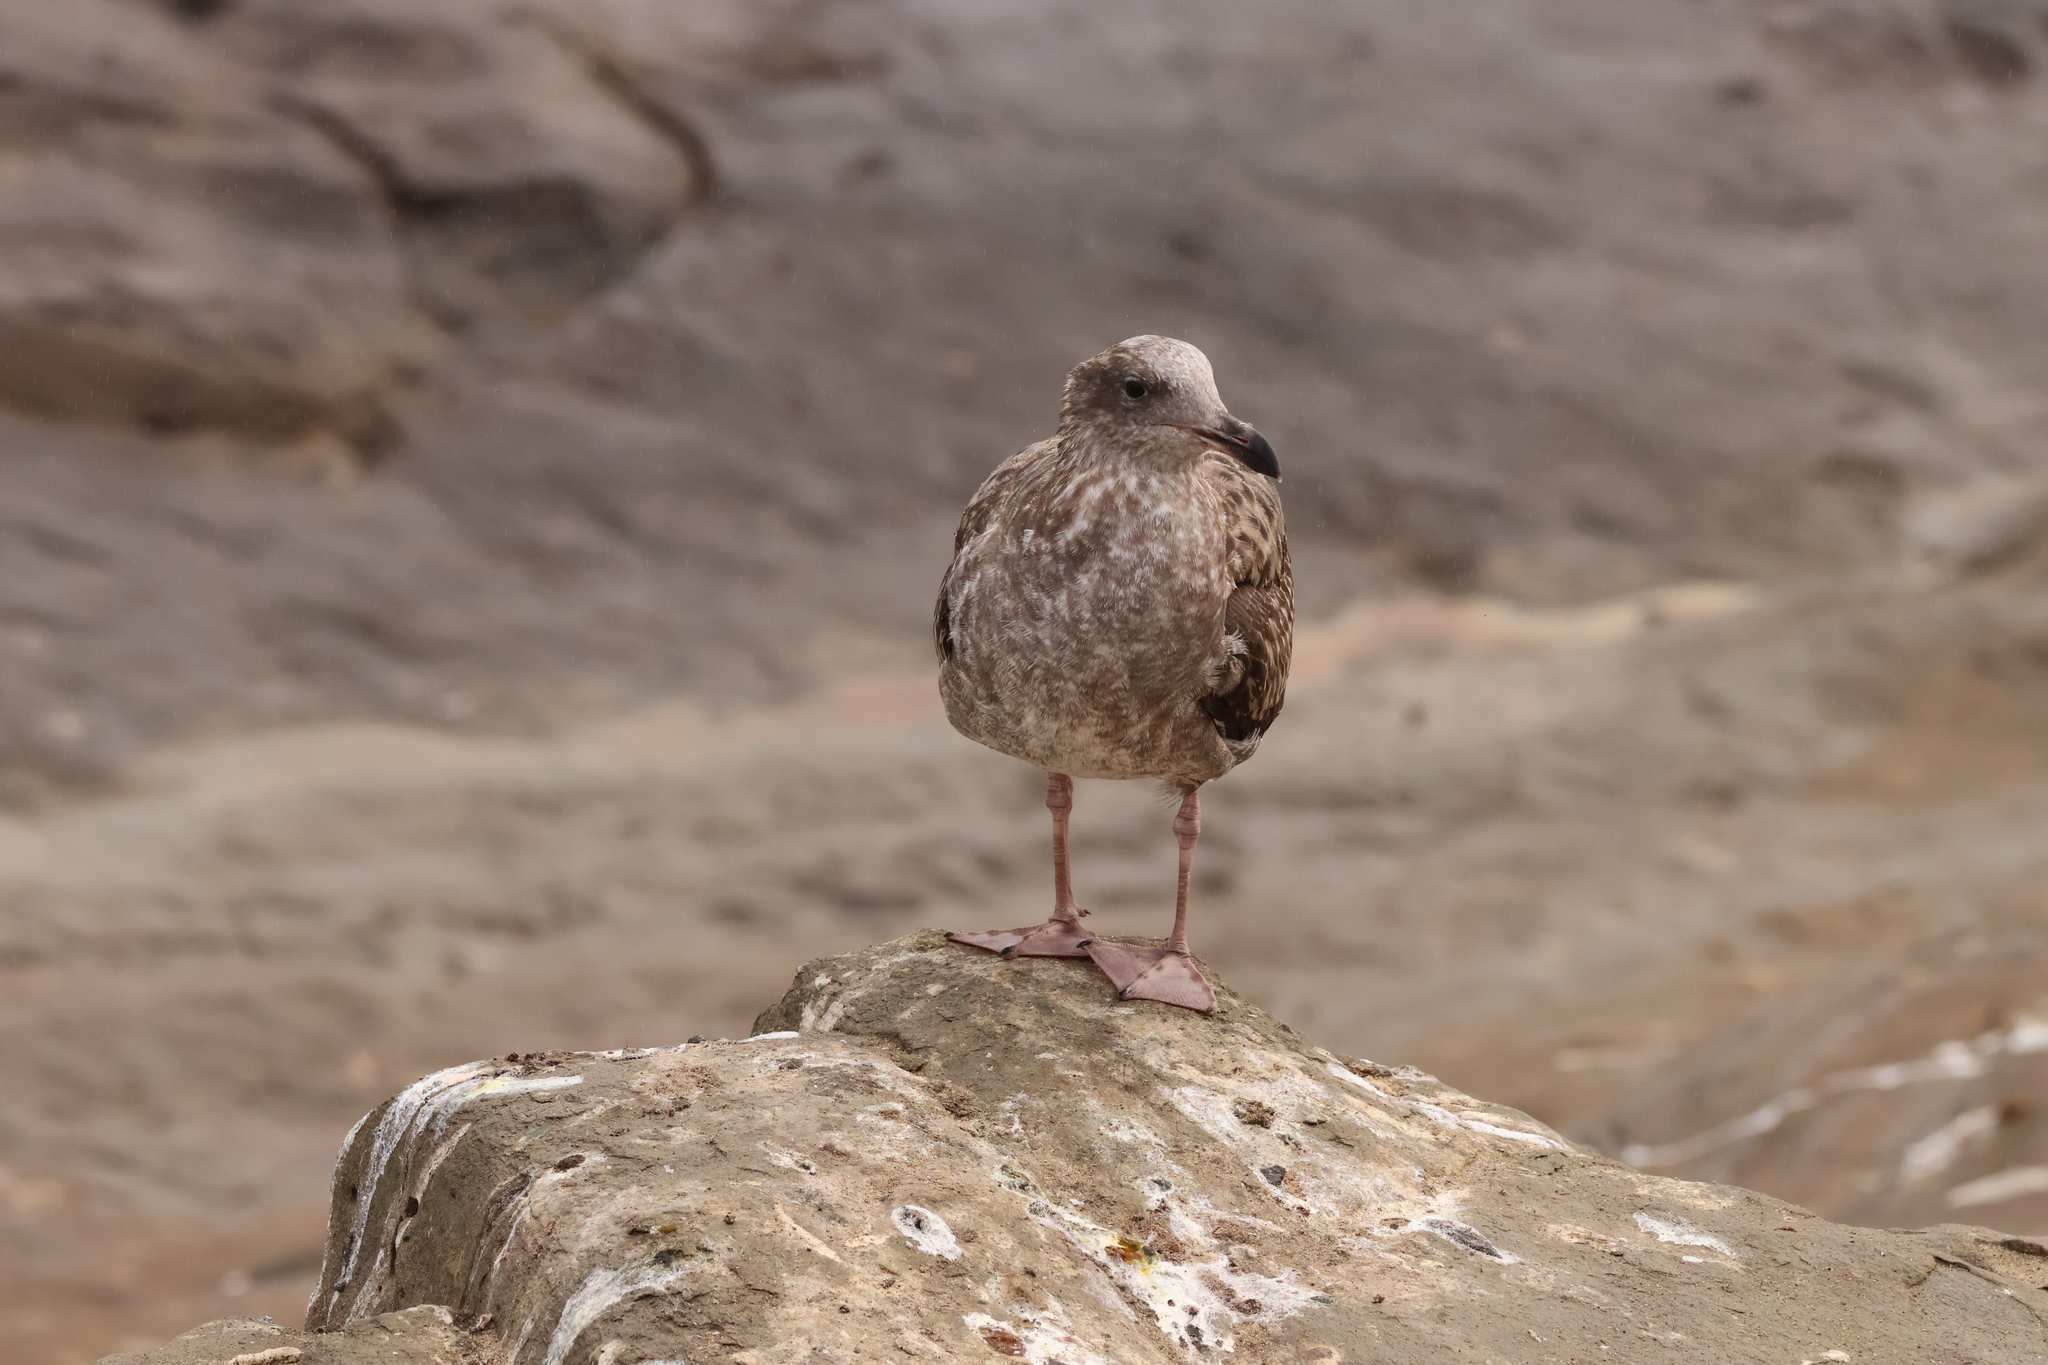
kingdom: Animalia
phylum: Chordata
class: Aves
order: Charadriiformes
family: Laridae
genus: Larus
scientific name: Larus occidentalis
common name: Western gull
